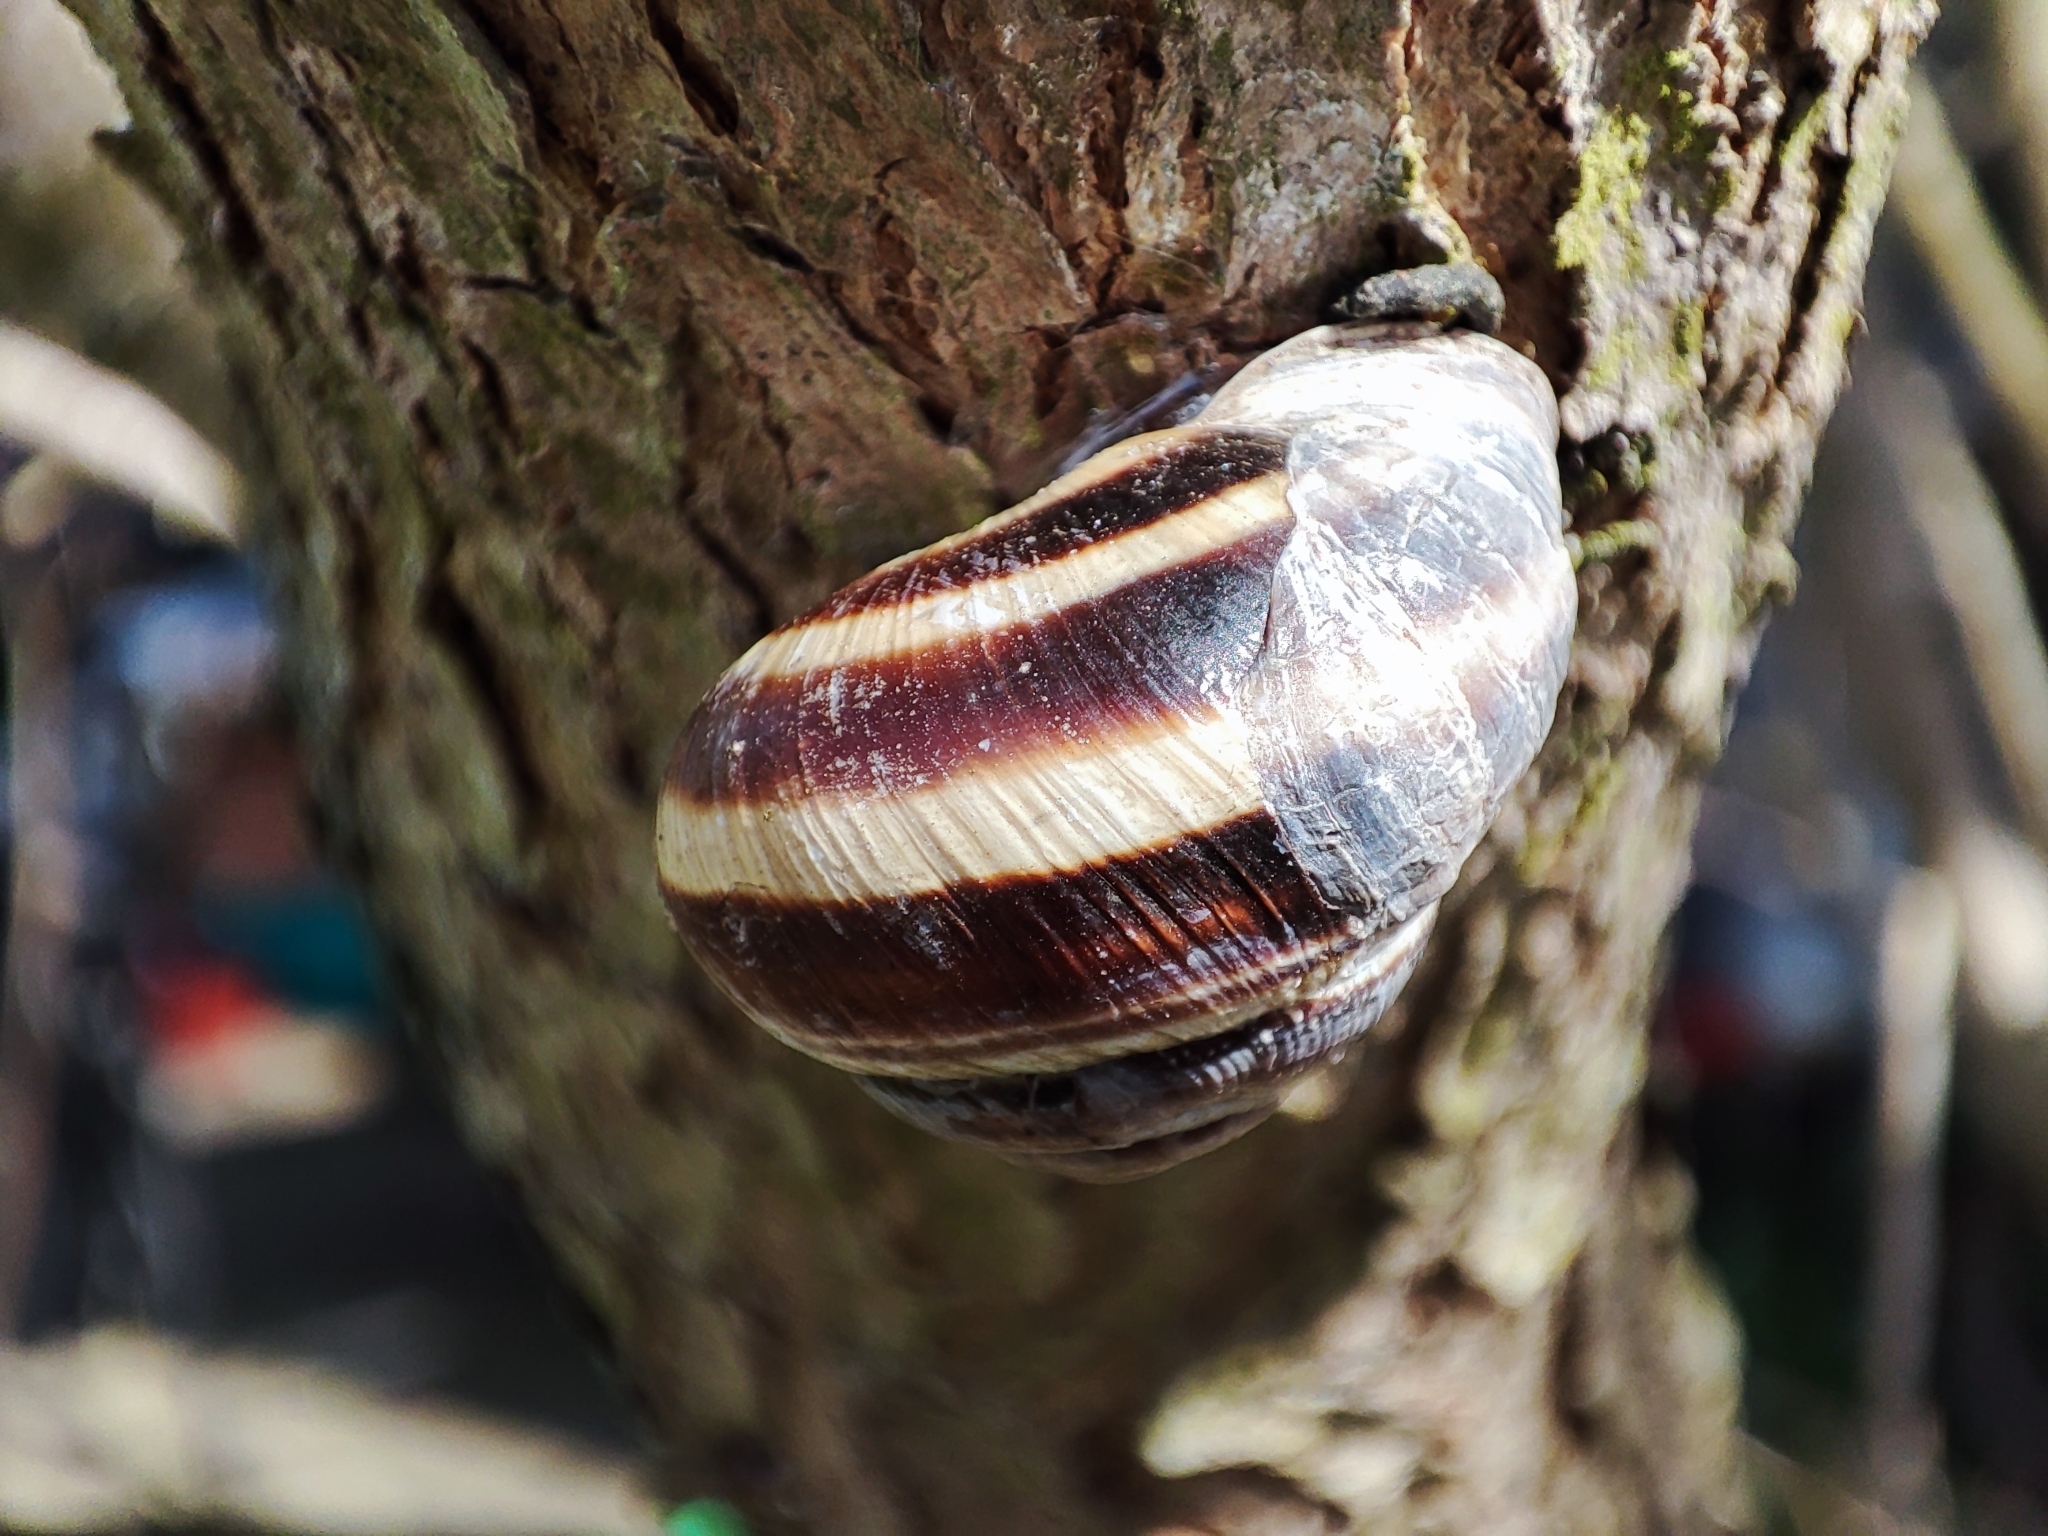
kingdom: Animalia
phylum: Mollusca
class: Gastropoda
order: Stylommatophora
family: Helicidae
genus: Caucasotachea
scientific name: Caucasotachea vindobonensis
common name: European helicid land snail
